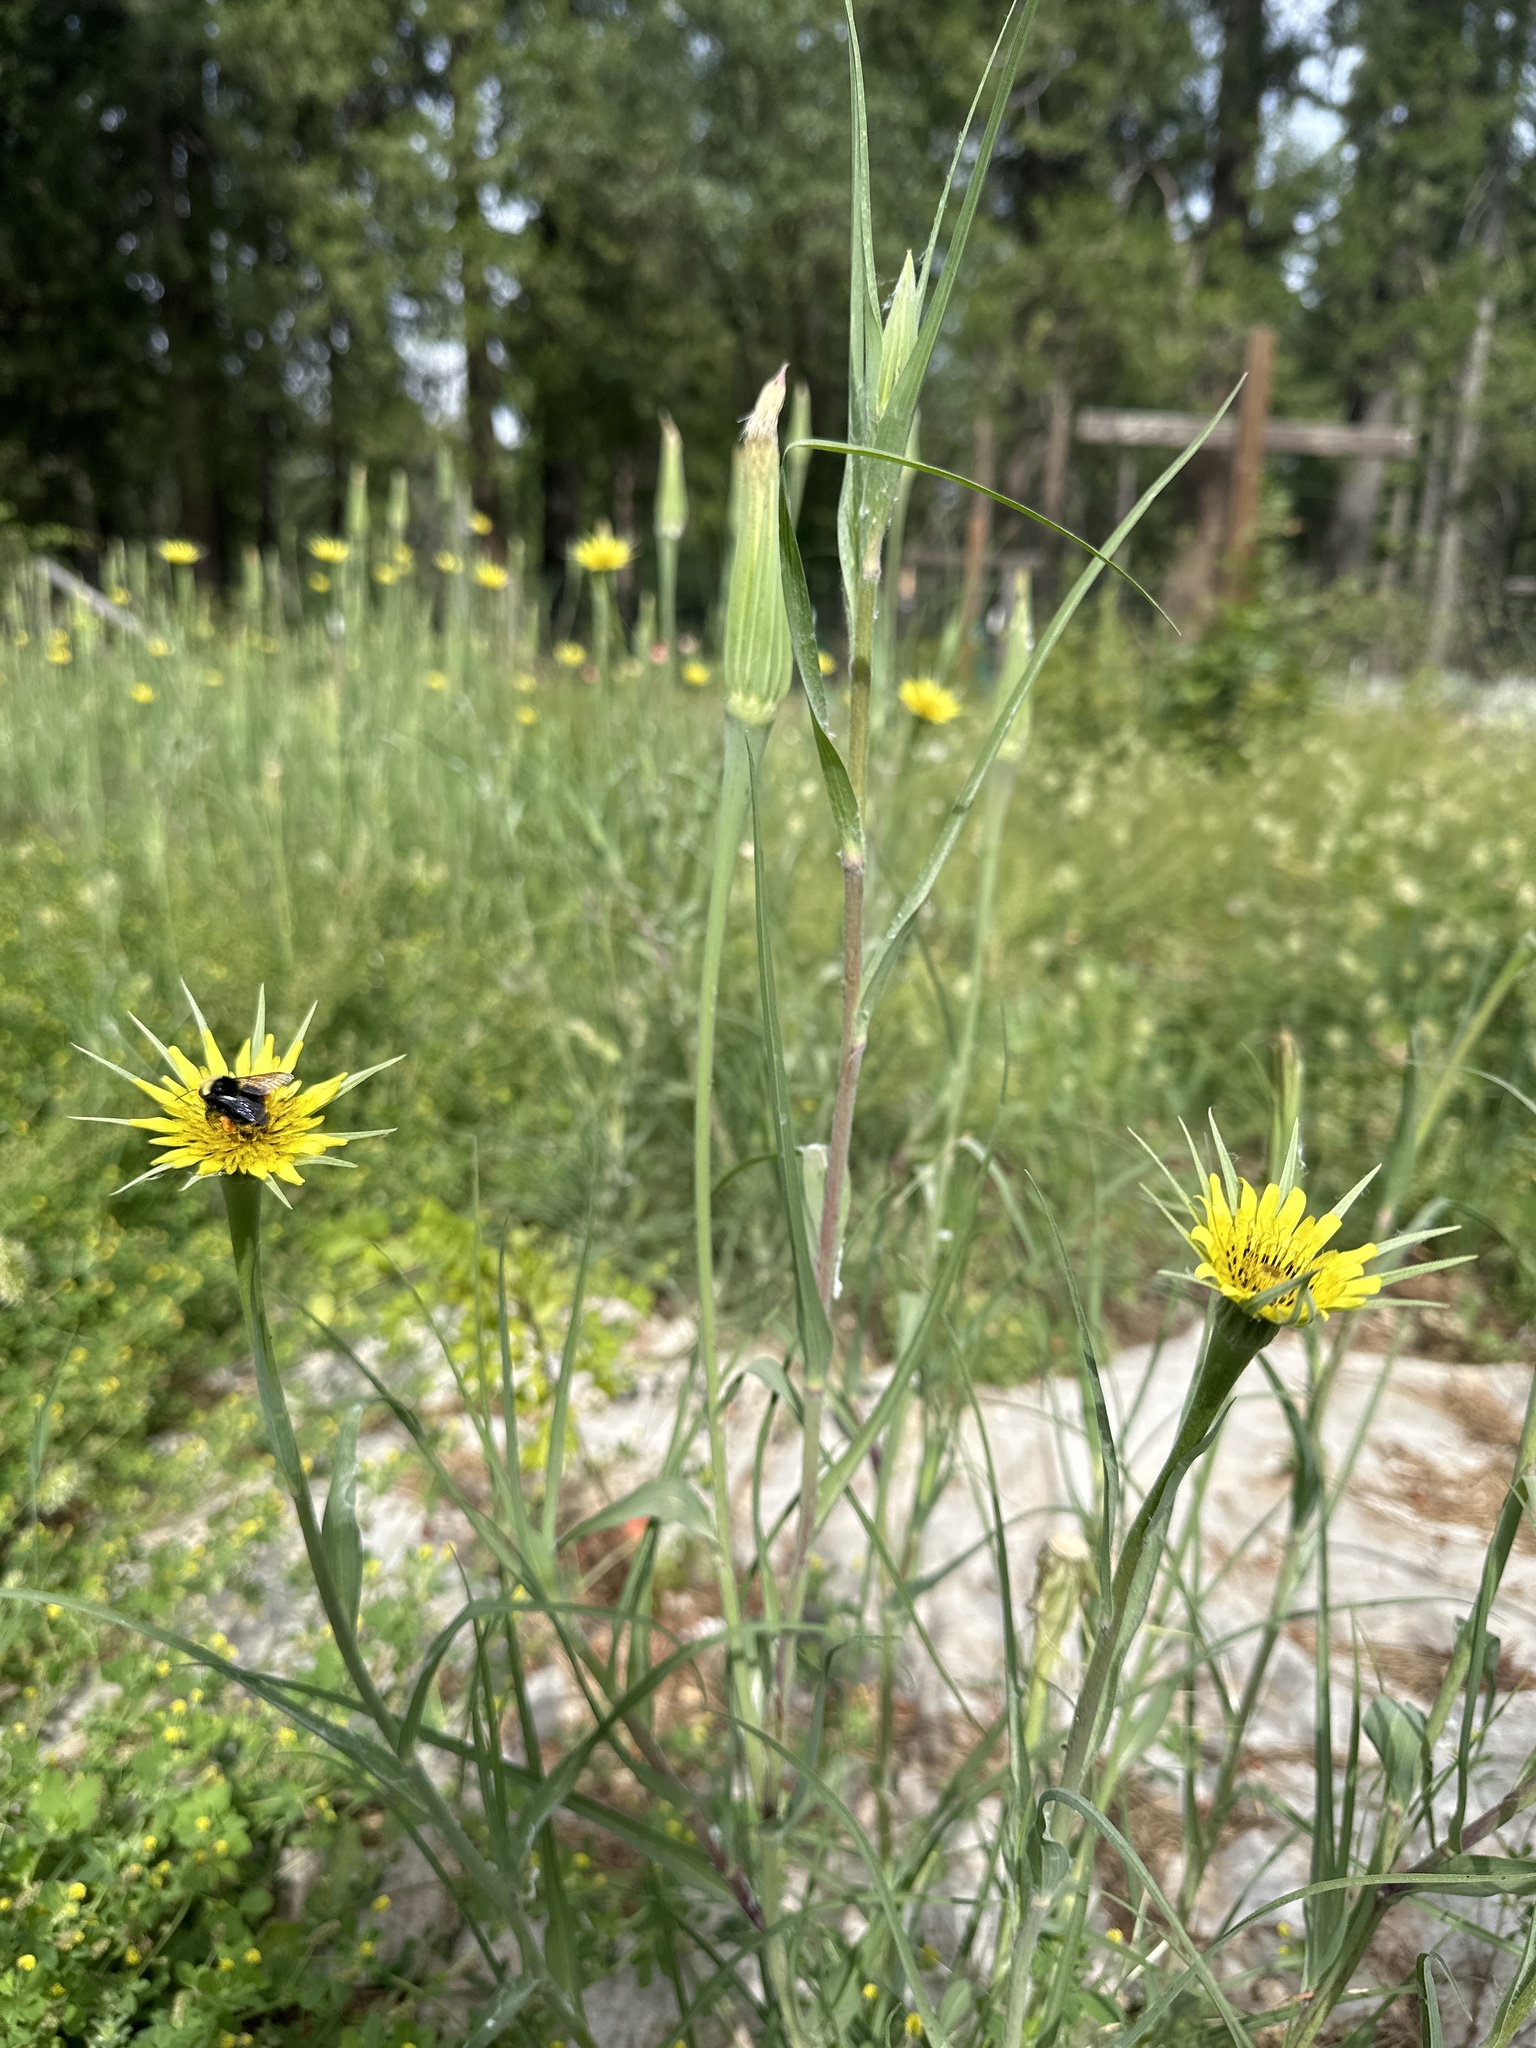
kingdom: Plantae
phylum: Tracheophyta
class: Magnoliopsida
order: Asterales
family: Asteraceae
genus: Tragopogon
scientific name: Tragopogon dubius
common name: Yellow salsify
